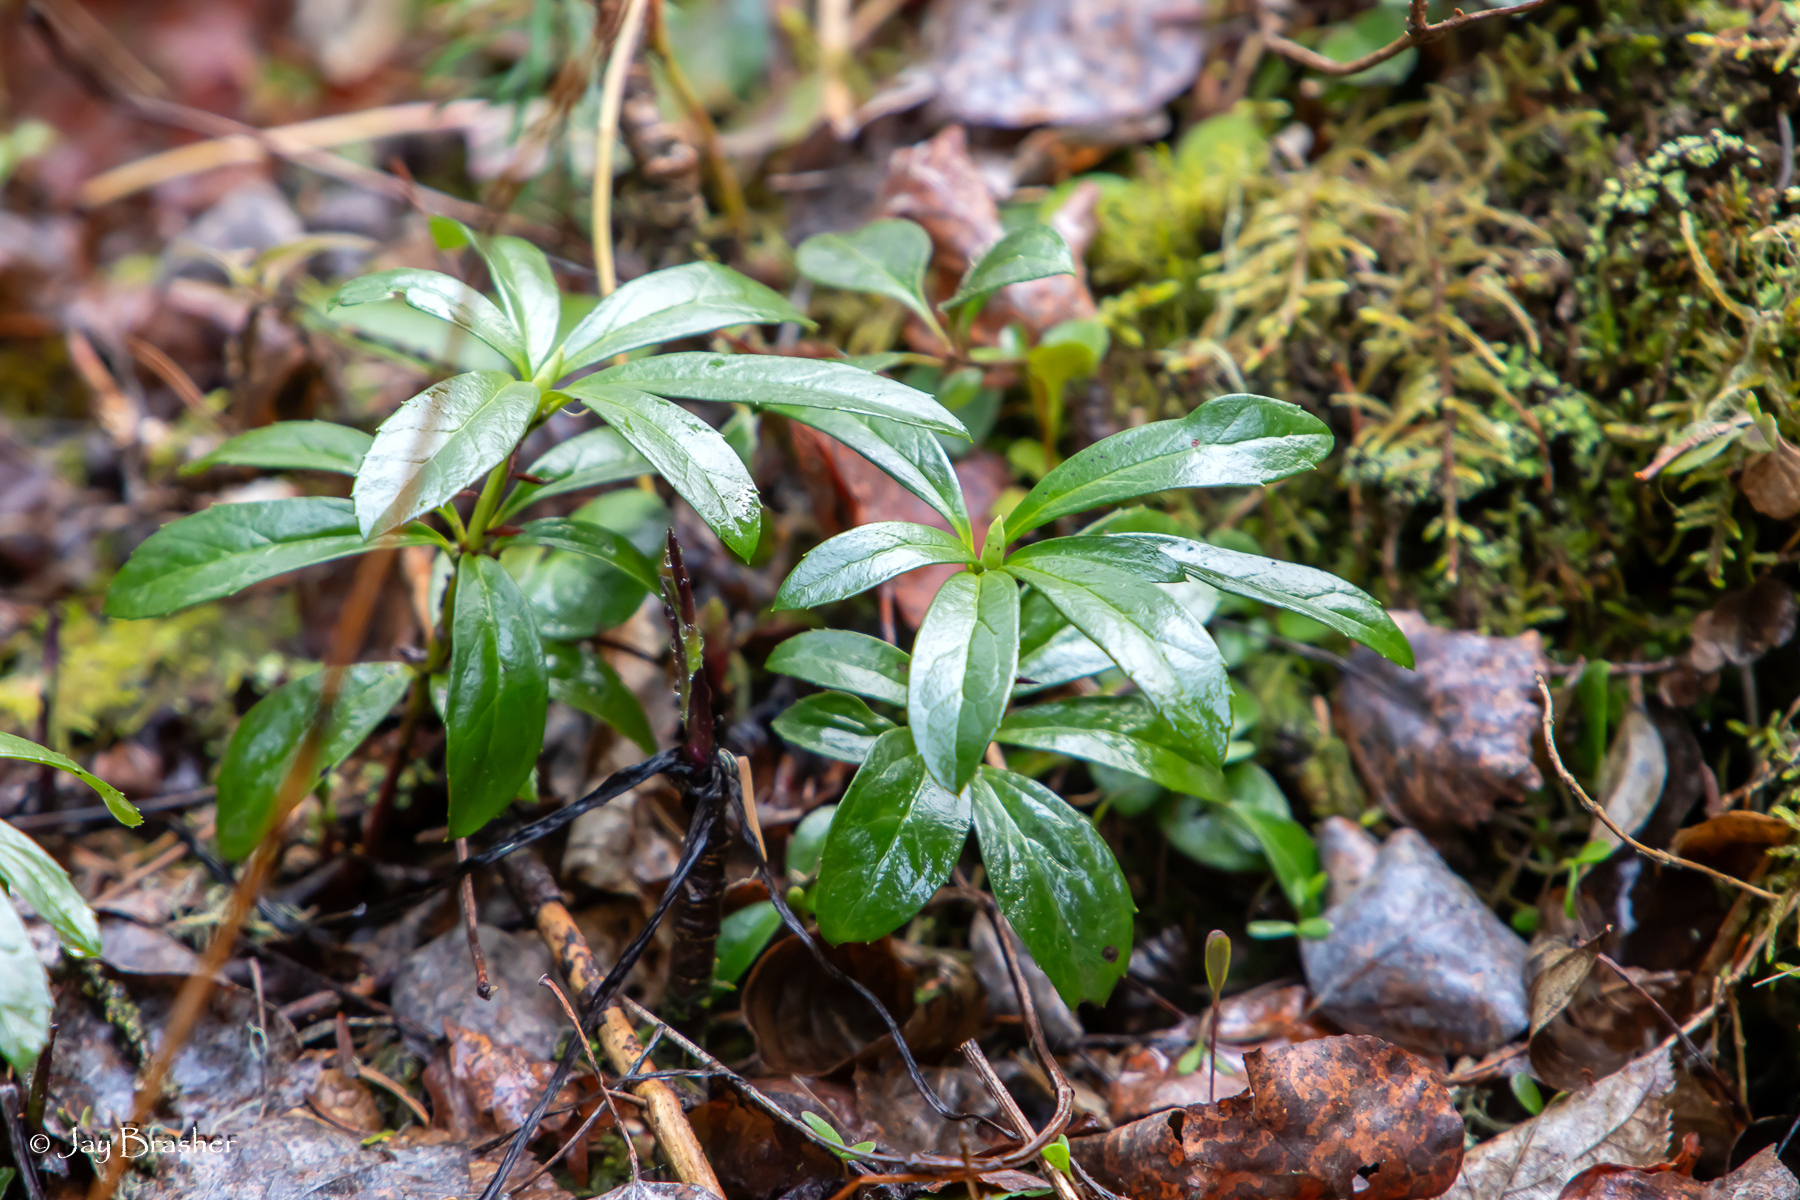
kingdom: Plantae
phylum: Tracheophyta
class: Magnoliopsida
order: Ericales
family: Ericaceae
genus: Chimaphila
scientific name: Chimaphila umbellata
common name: Pipsissewa
